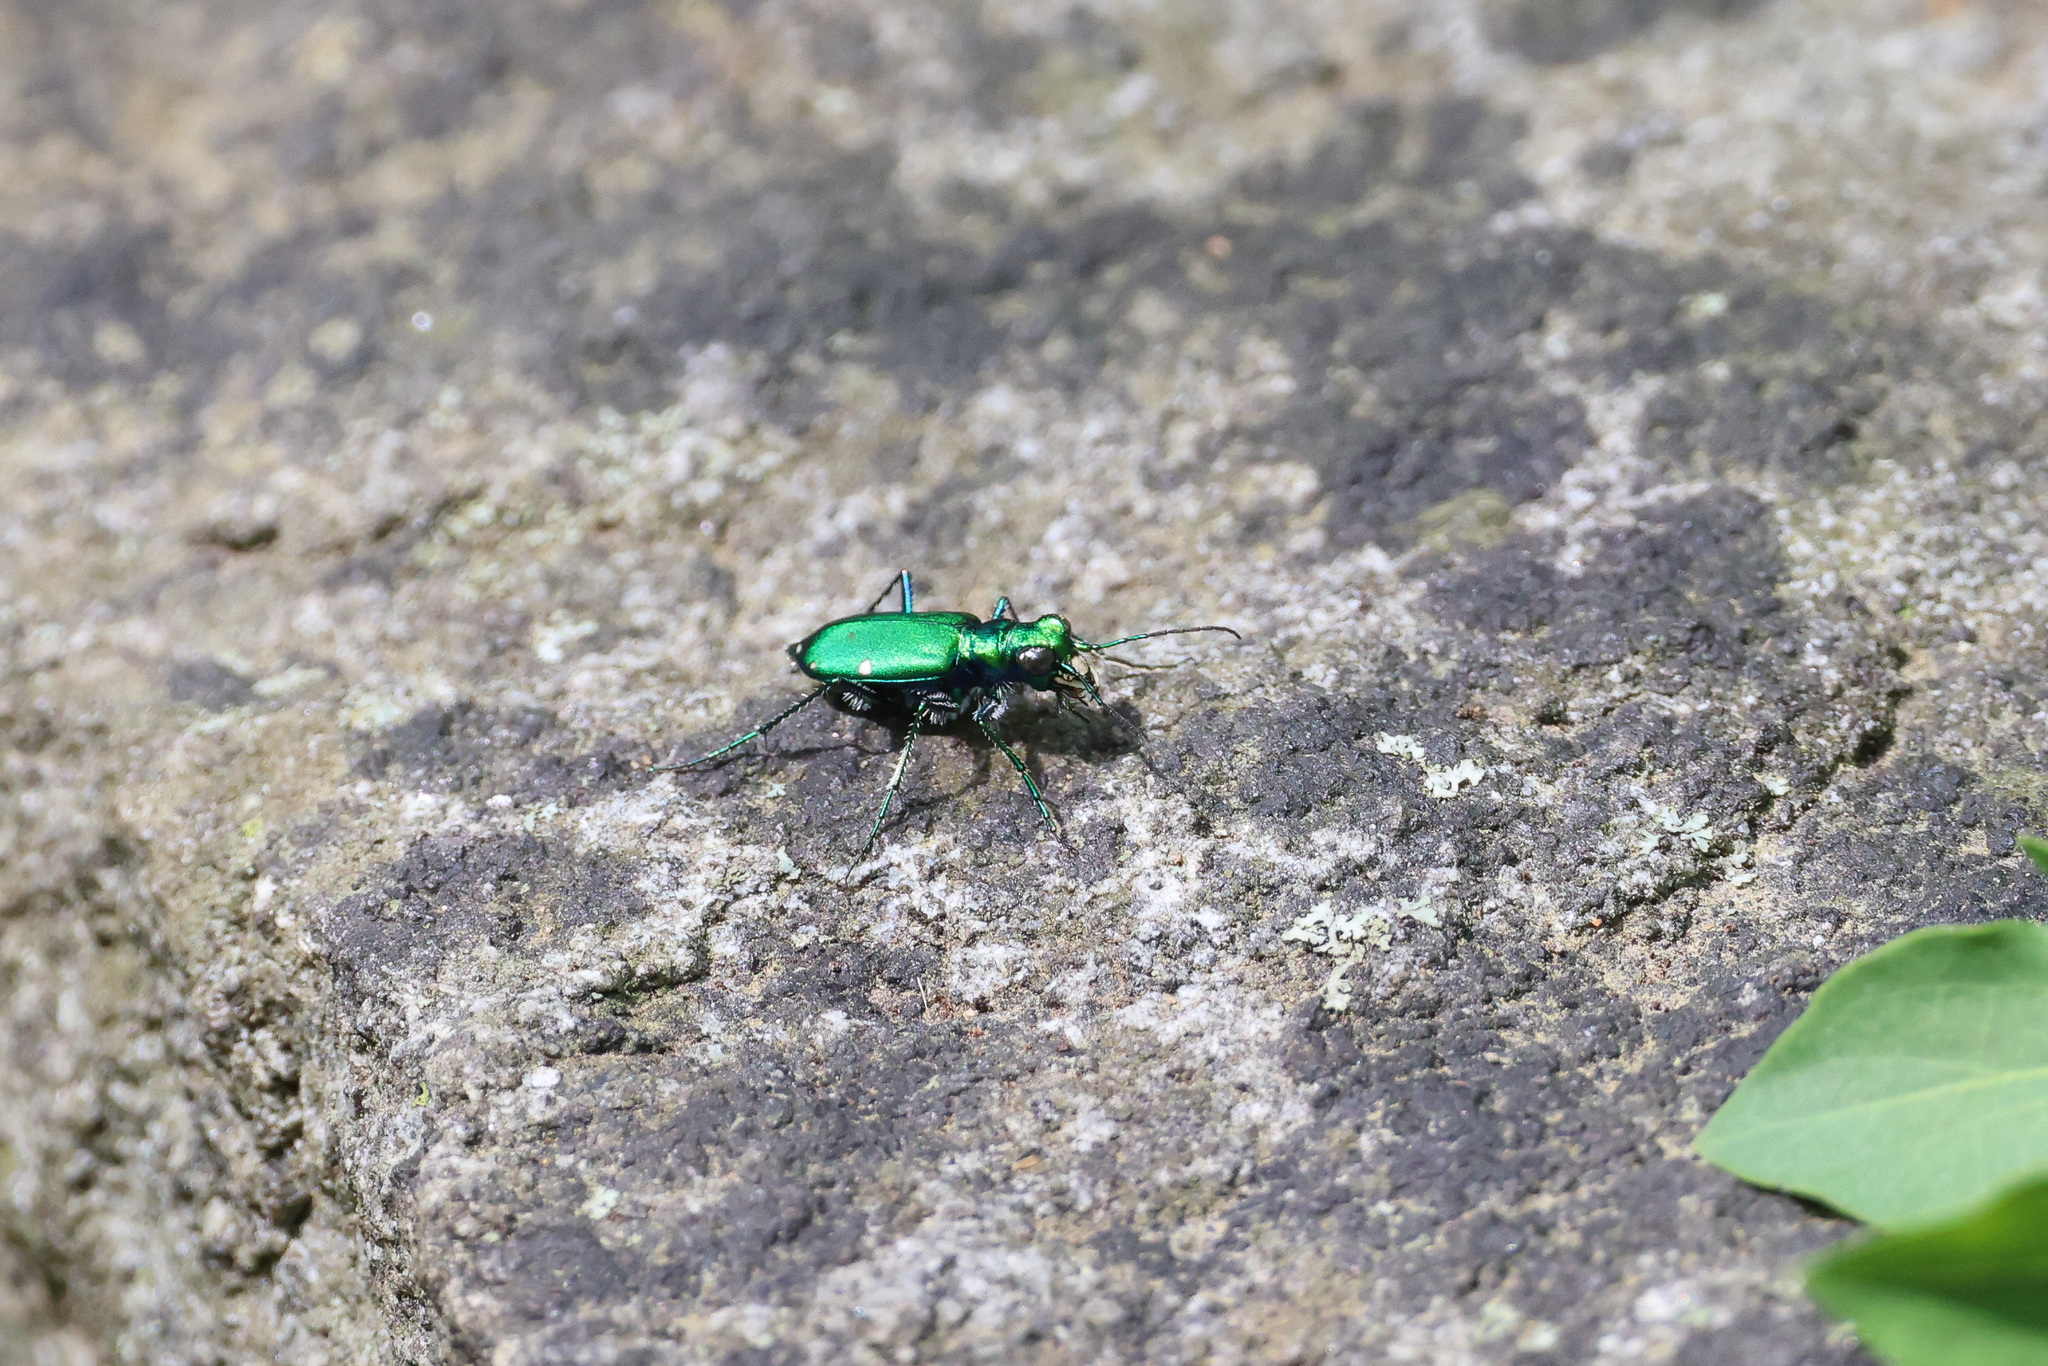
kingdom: Animalia
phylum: Arthropoda
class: Insecta
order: Coleoptera
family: Carabidae
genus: Cicindela
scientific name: Cicindela sexguttata
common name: Six-spotted tiger beetle
